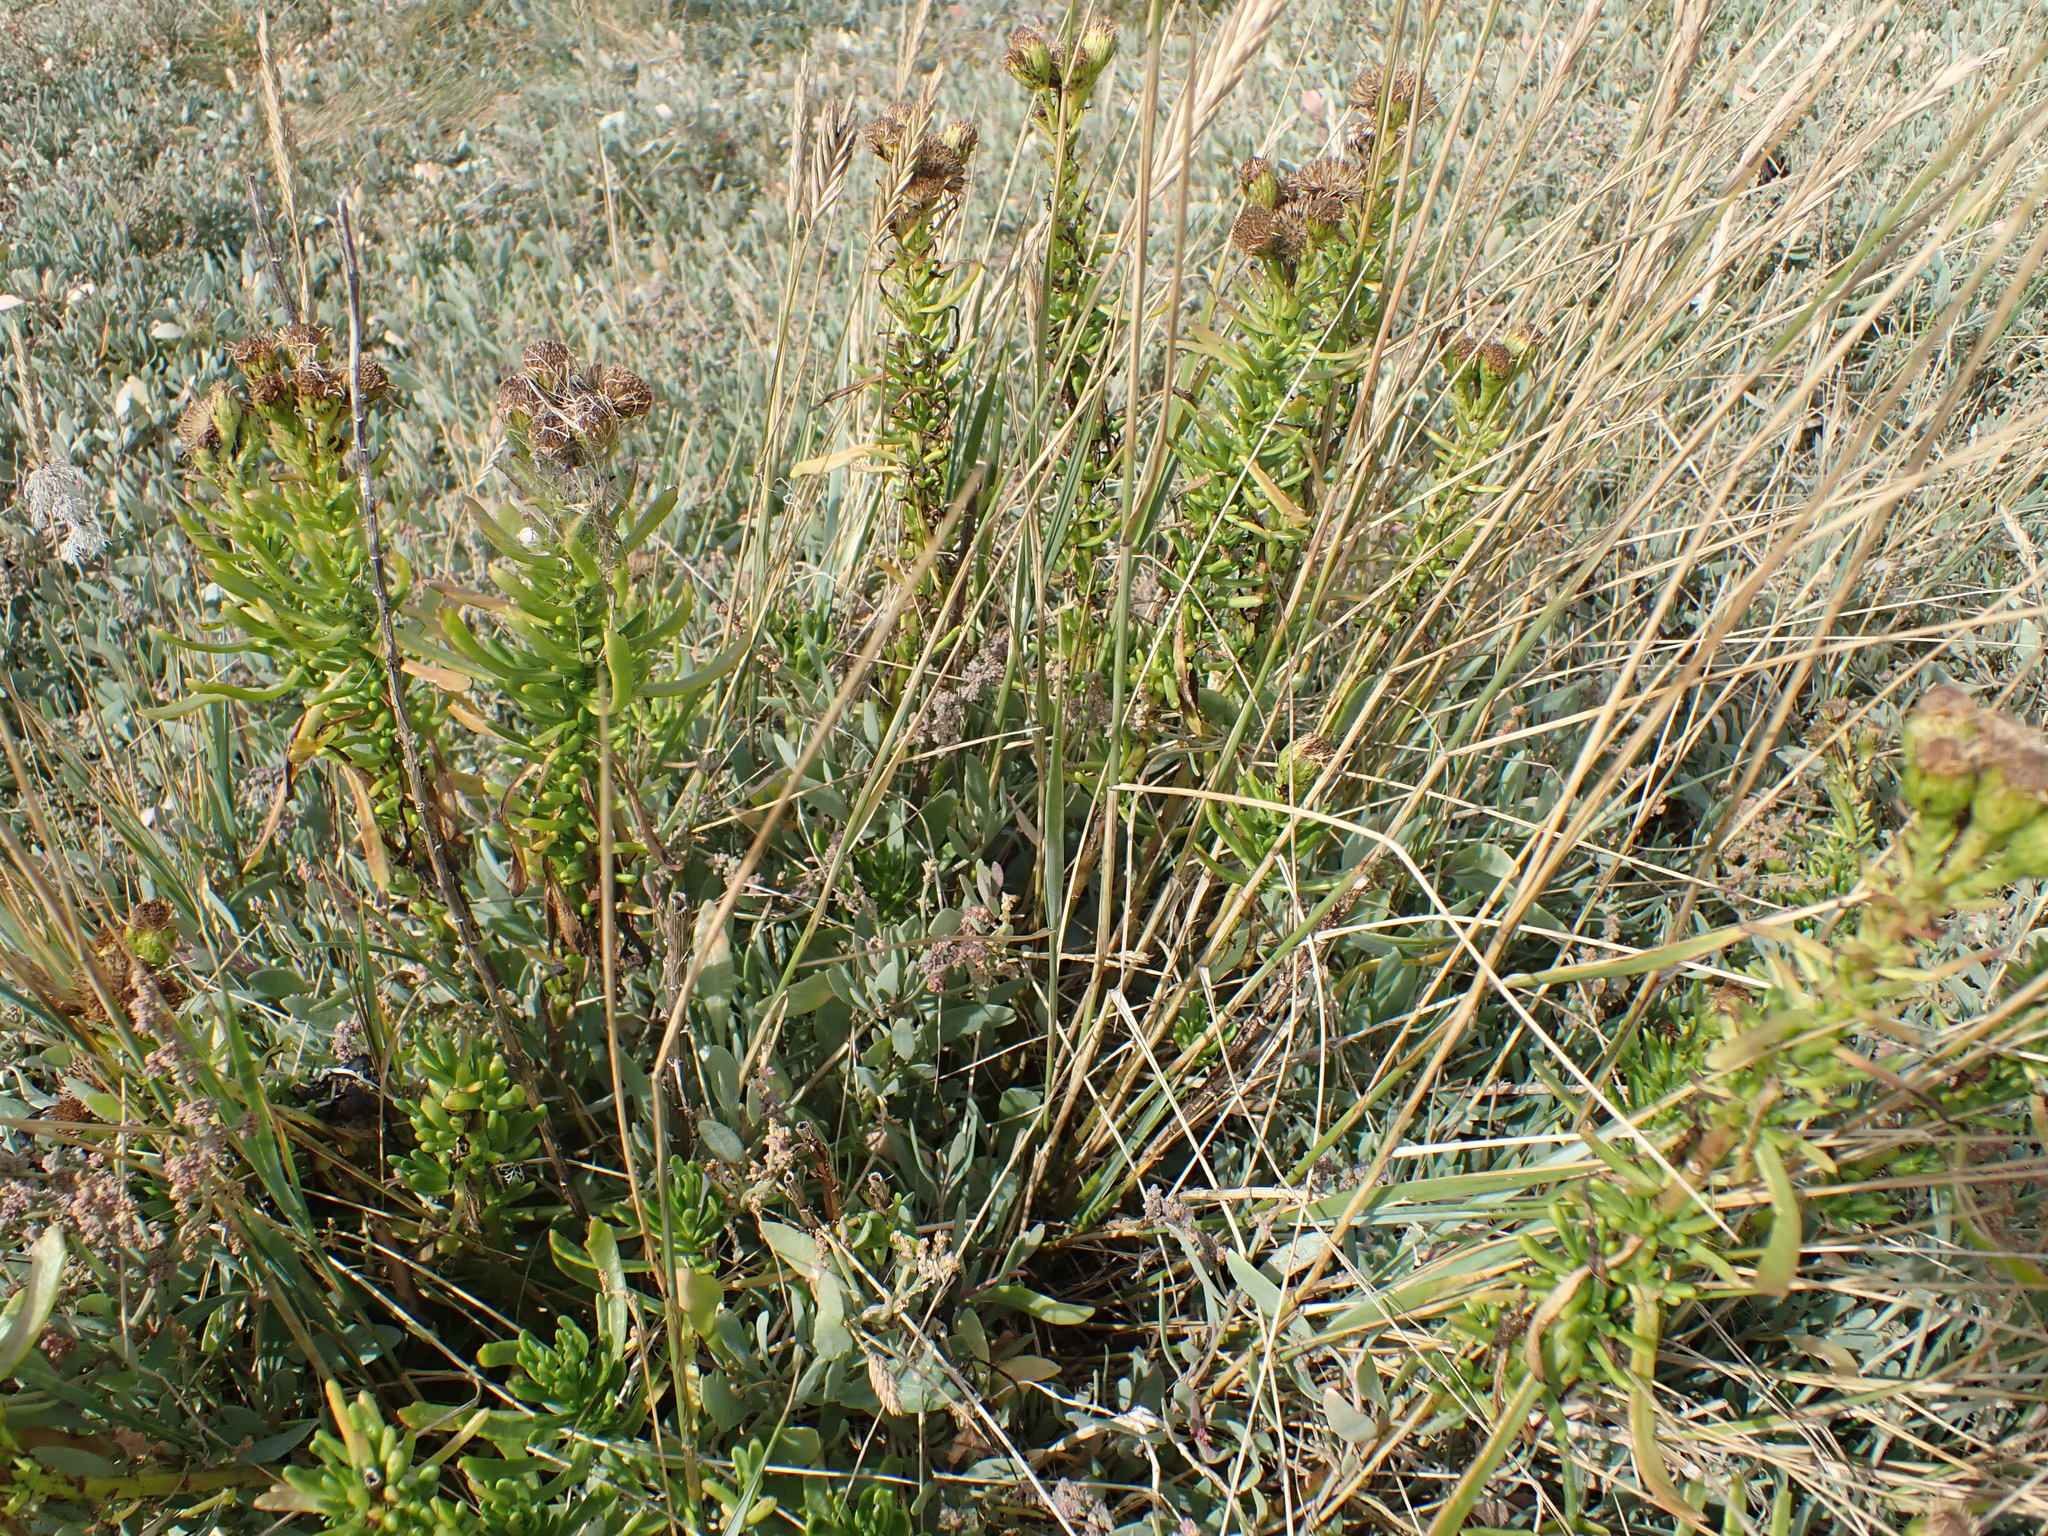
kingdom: Plantae
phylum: Tracheophyta
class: Magnoliopsida
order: Asterales
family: Asteraceae
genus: Limbarda
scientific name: Limbarda crithmoides
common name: Golden samphire
